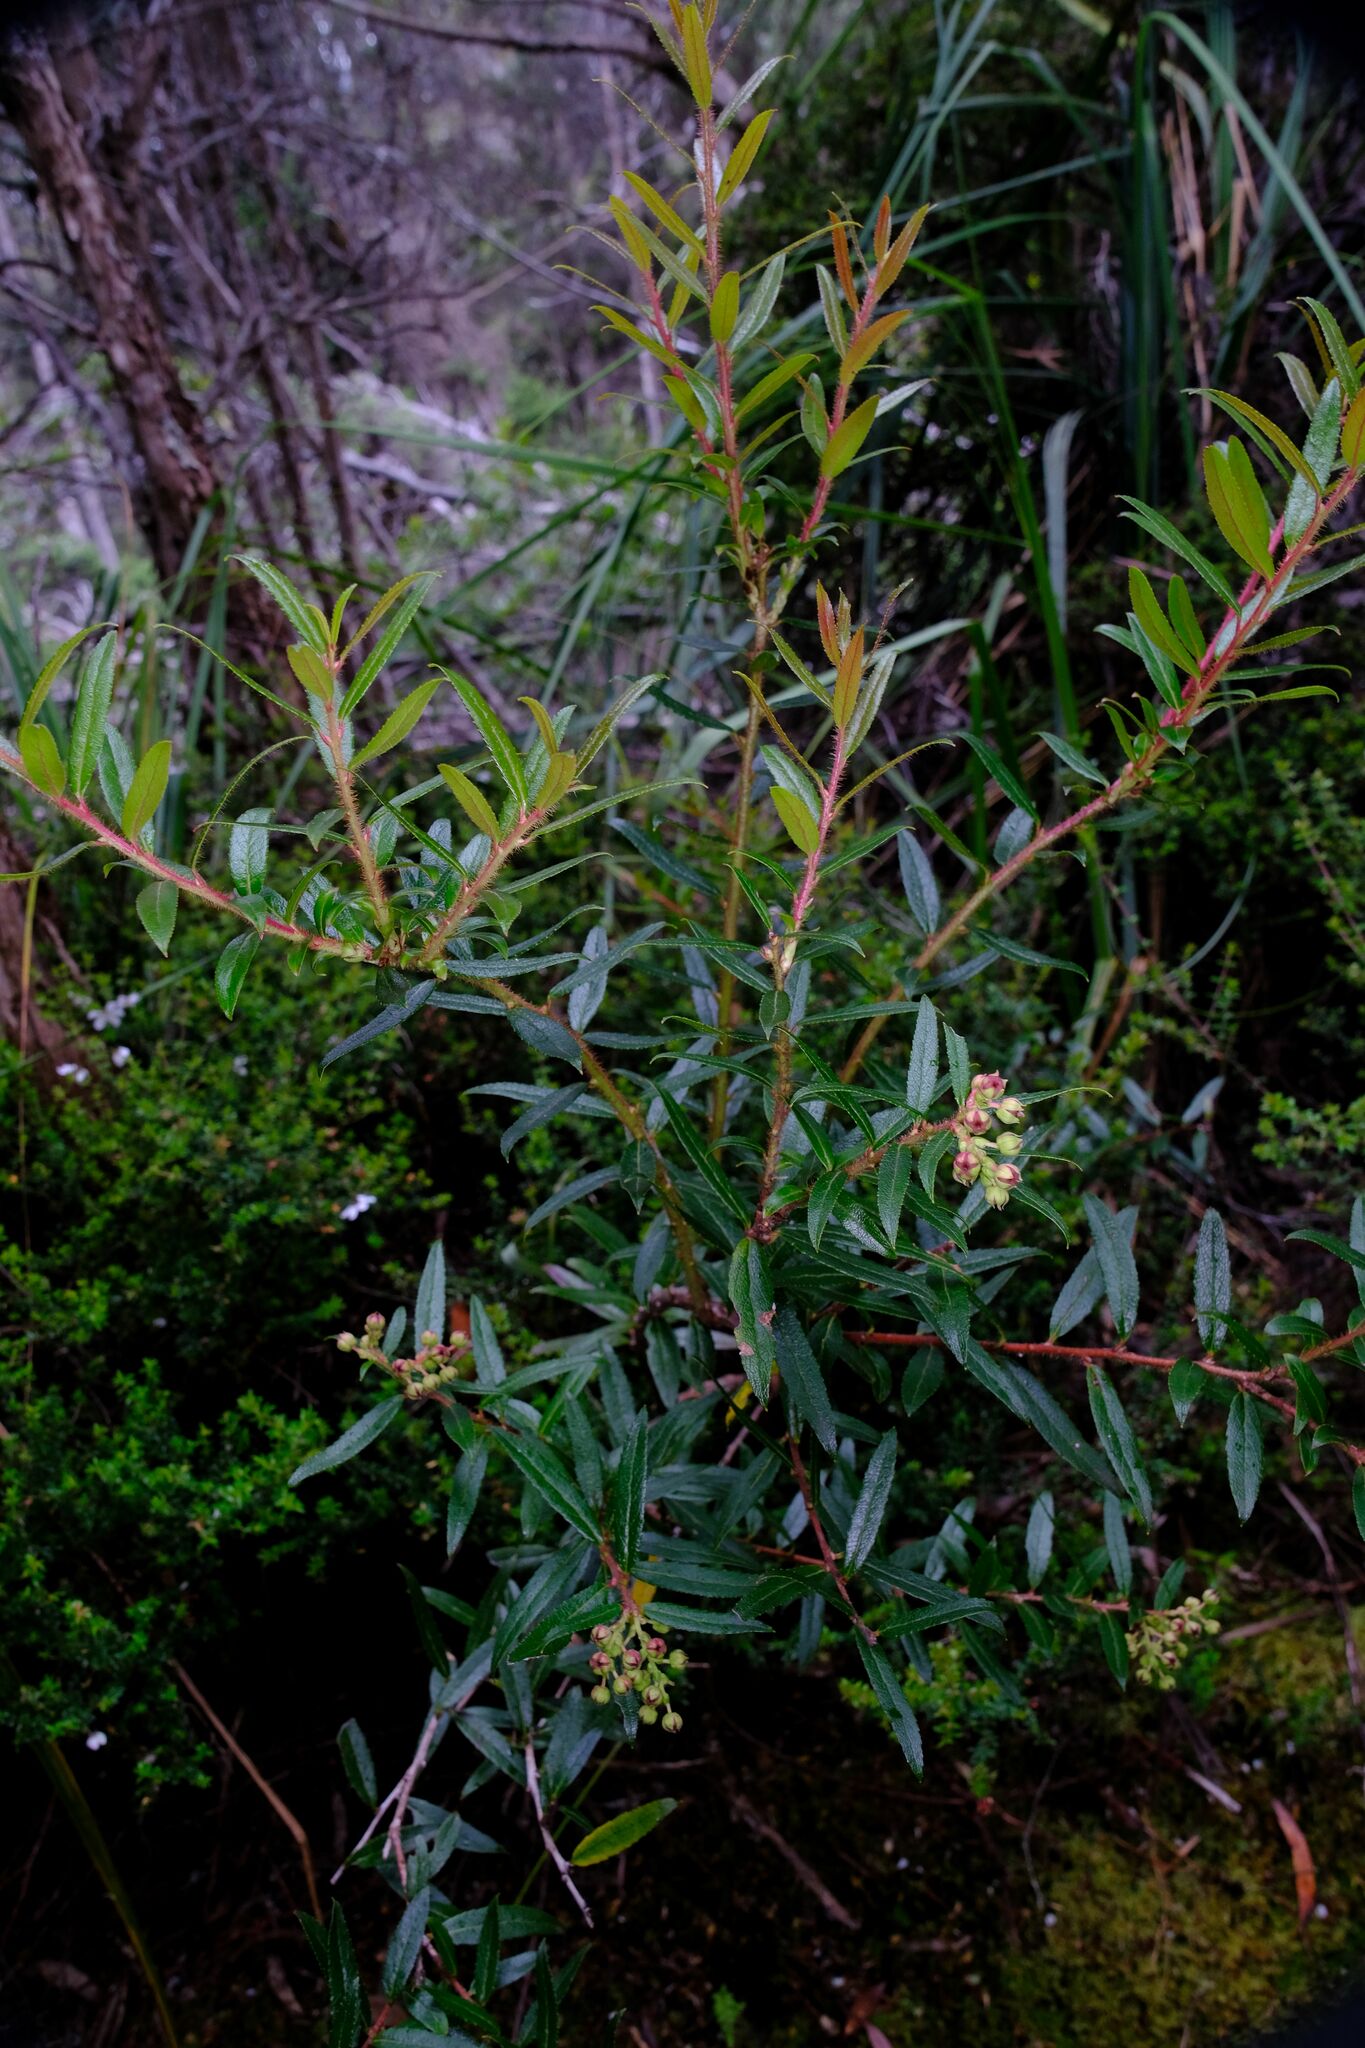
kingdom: Plantae
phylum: Tracheophyta
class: Magnoliopsida
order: Ericales
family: Ericaceae
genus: Gaultheria
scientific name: Gaultheria hispida
